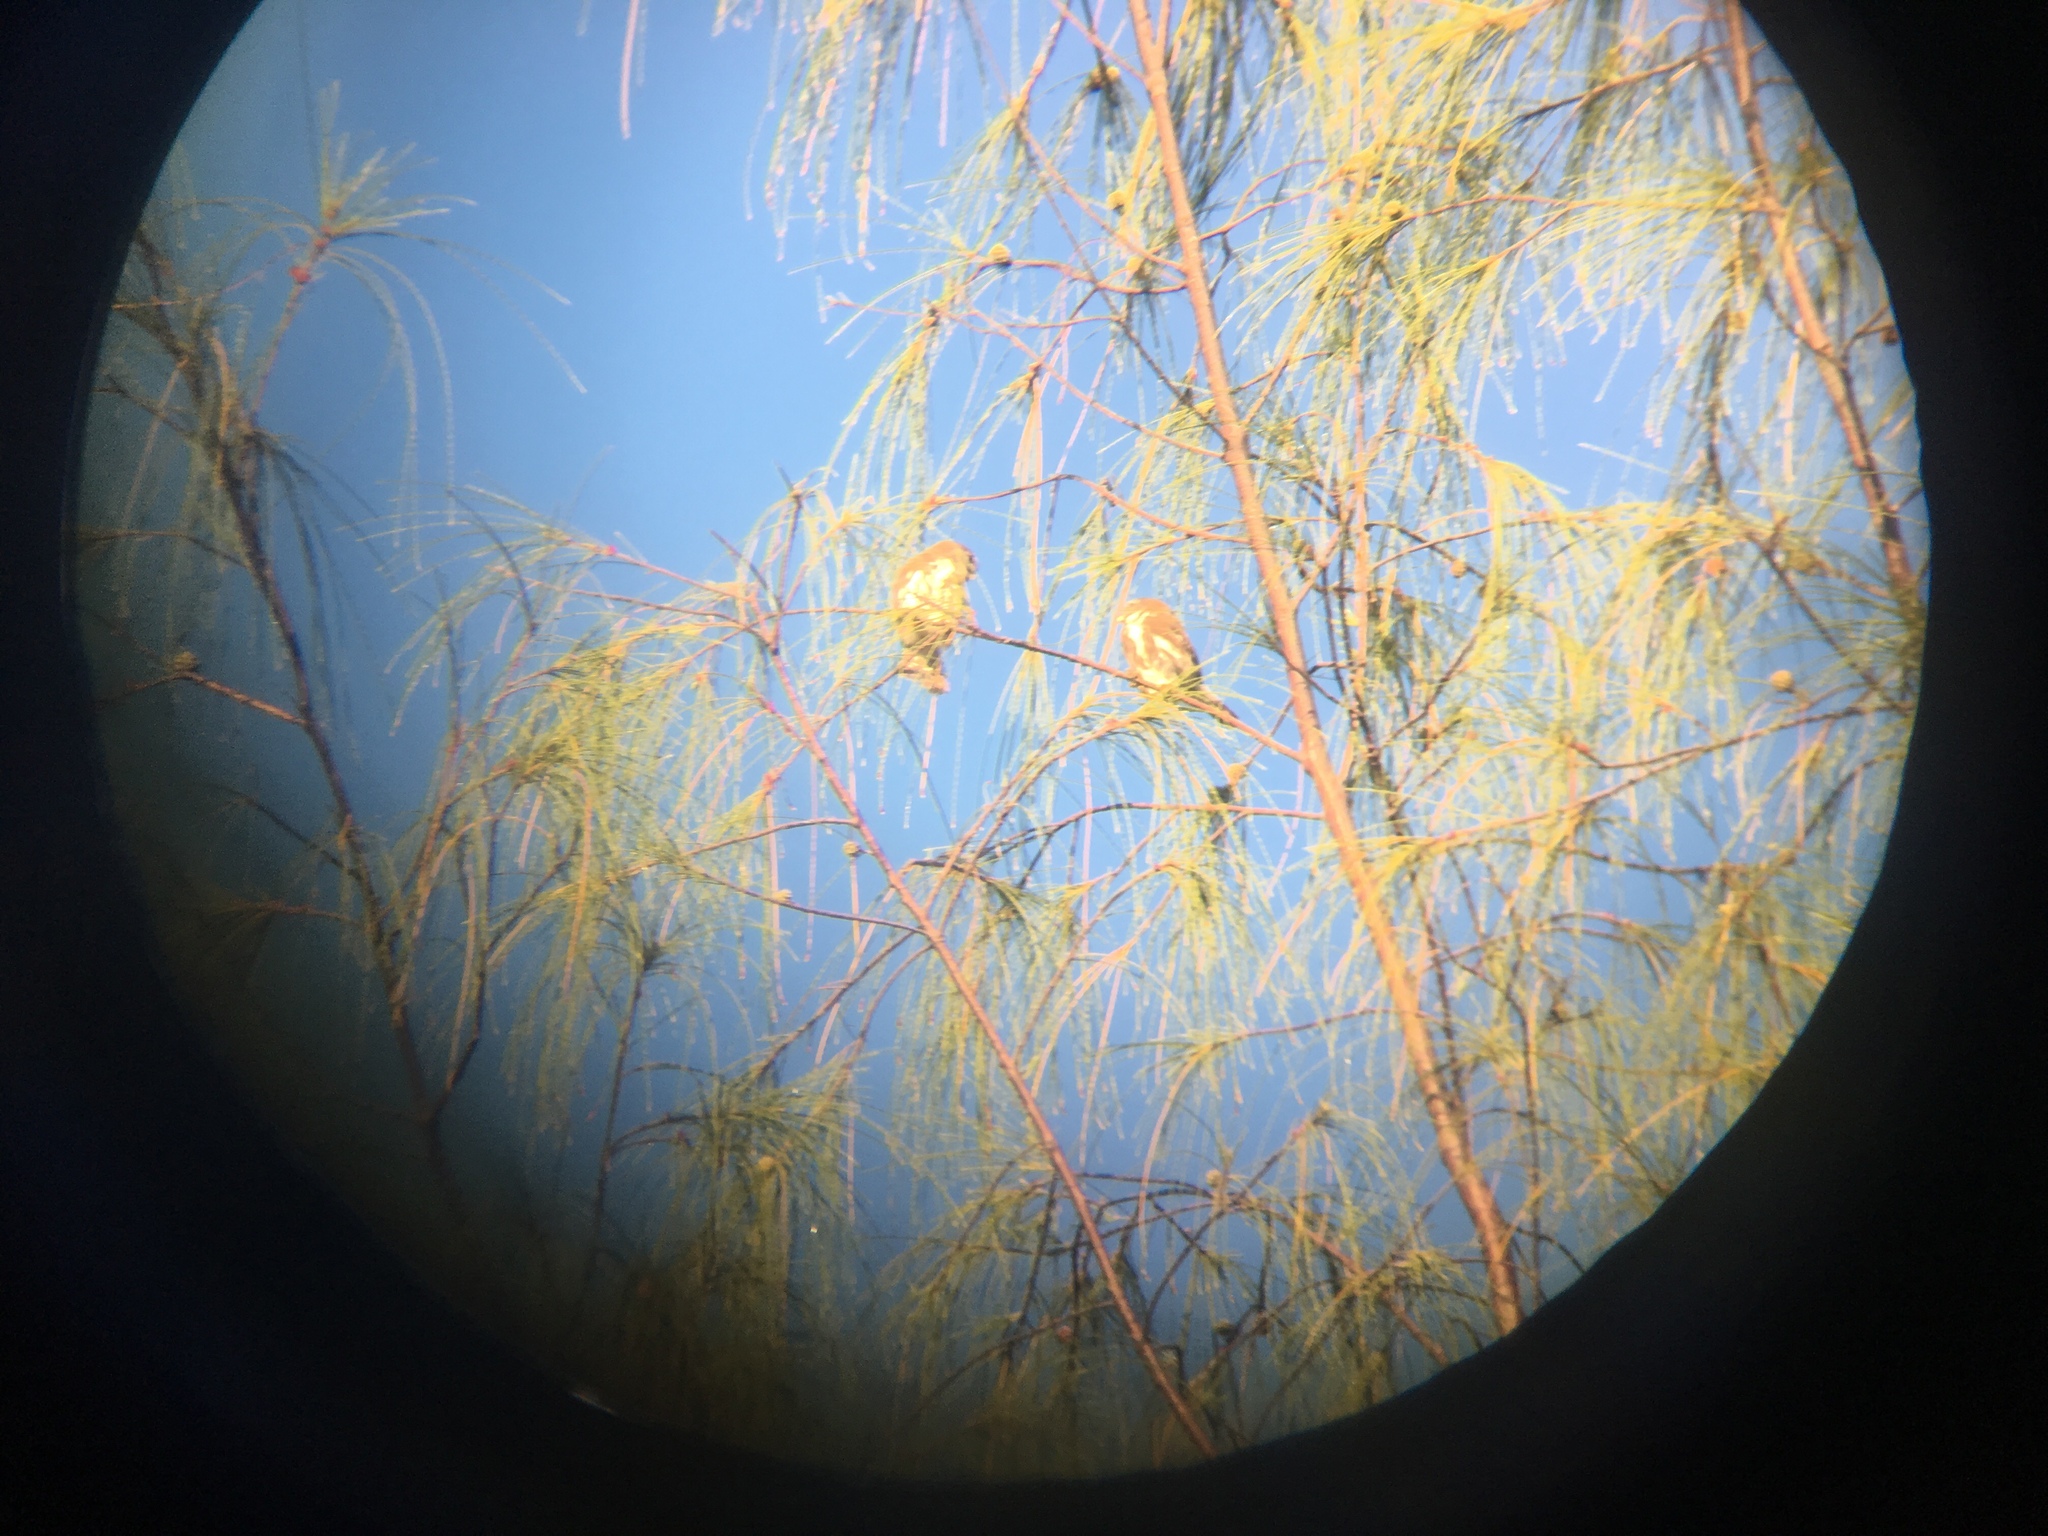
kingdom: Animalia
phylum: Chordata
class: Aves
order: Strigiformes
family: Strigidae
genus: Glaucidium
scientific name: Glaucidium brasilianum
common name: Ferruginous pygmy-owl
